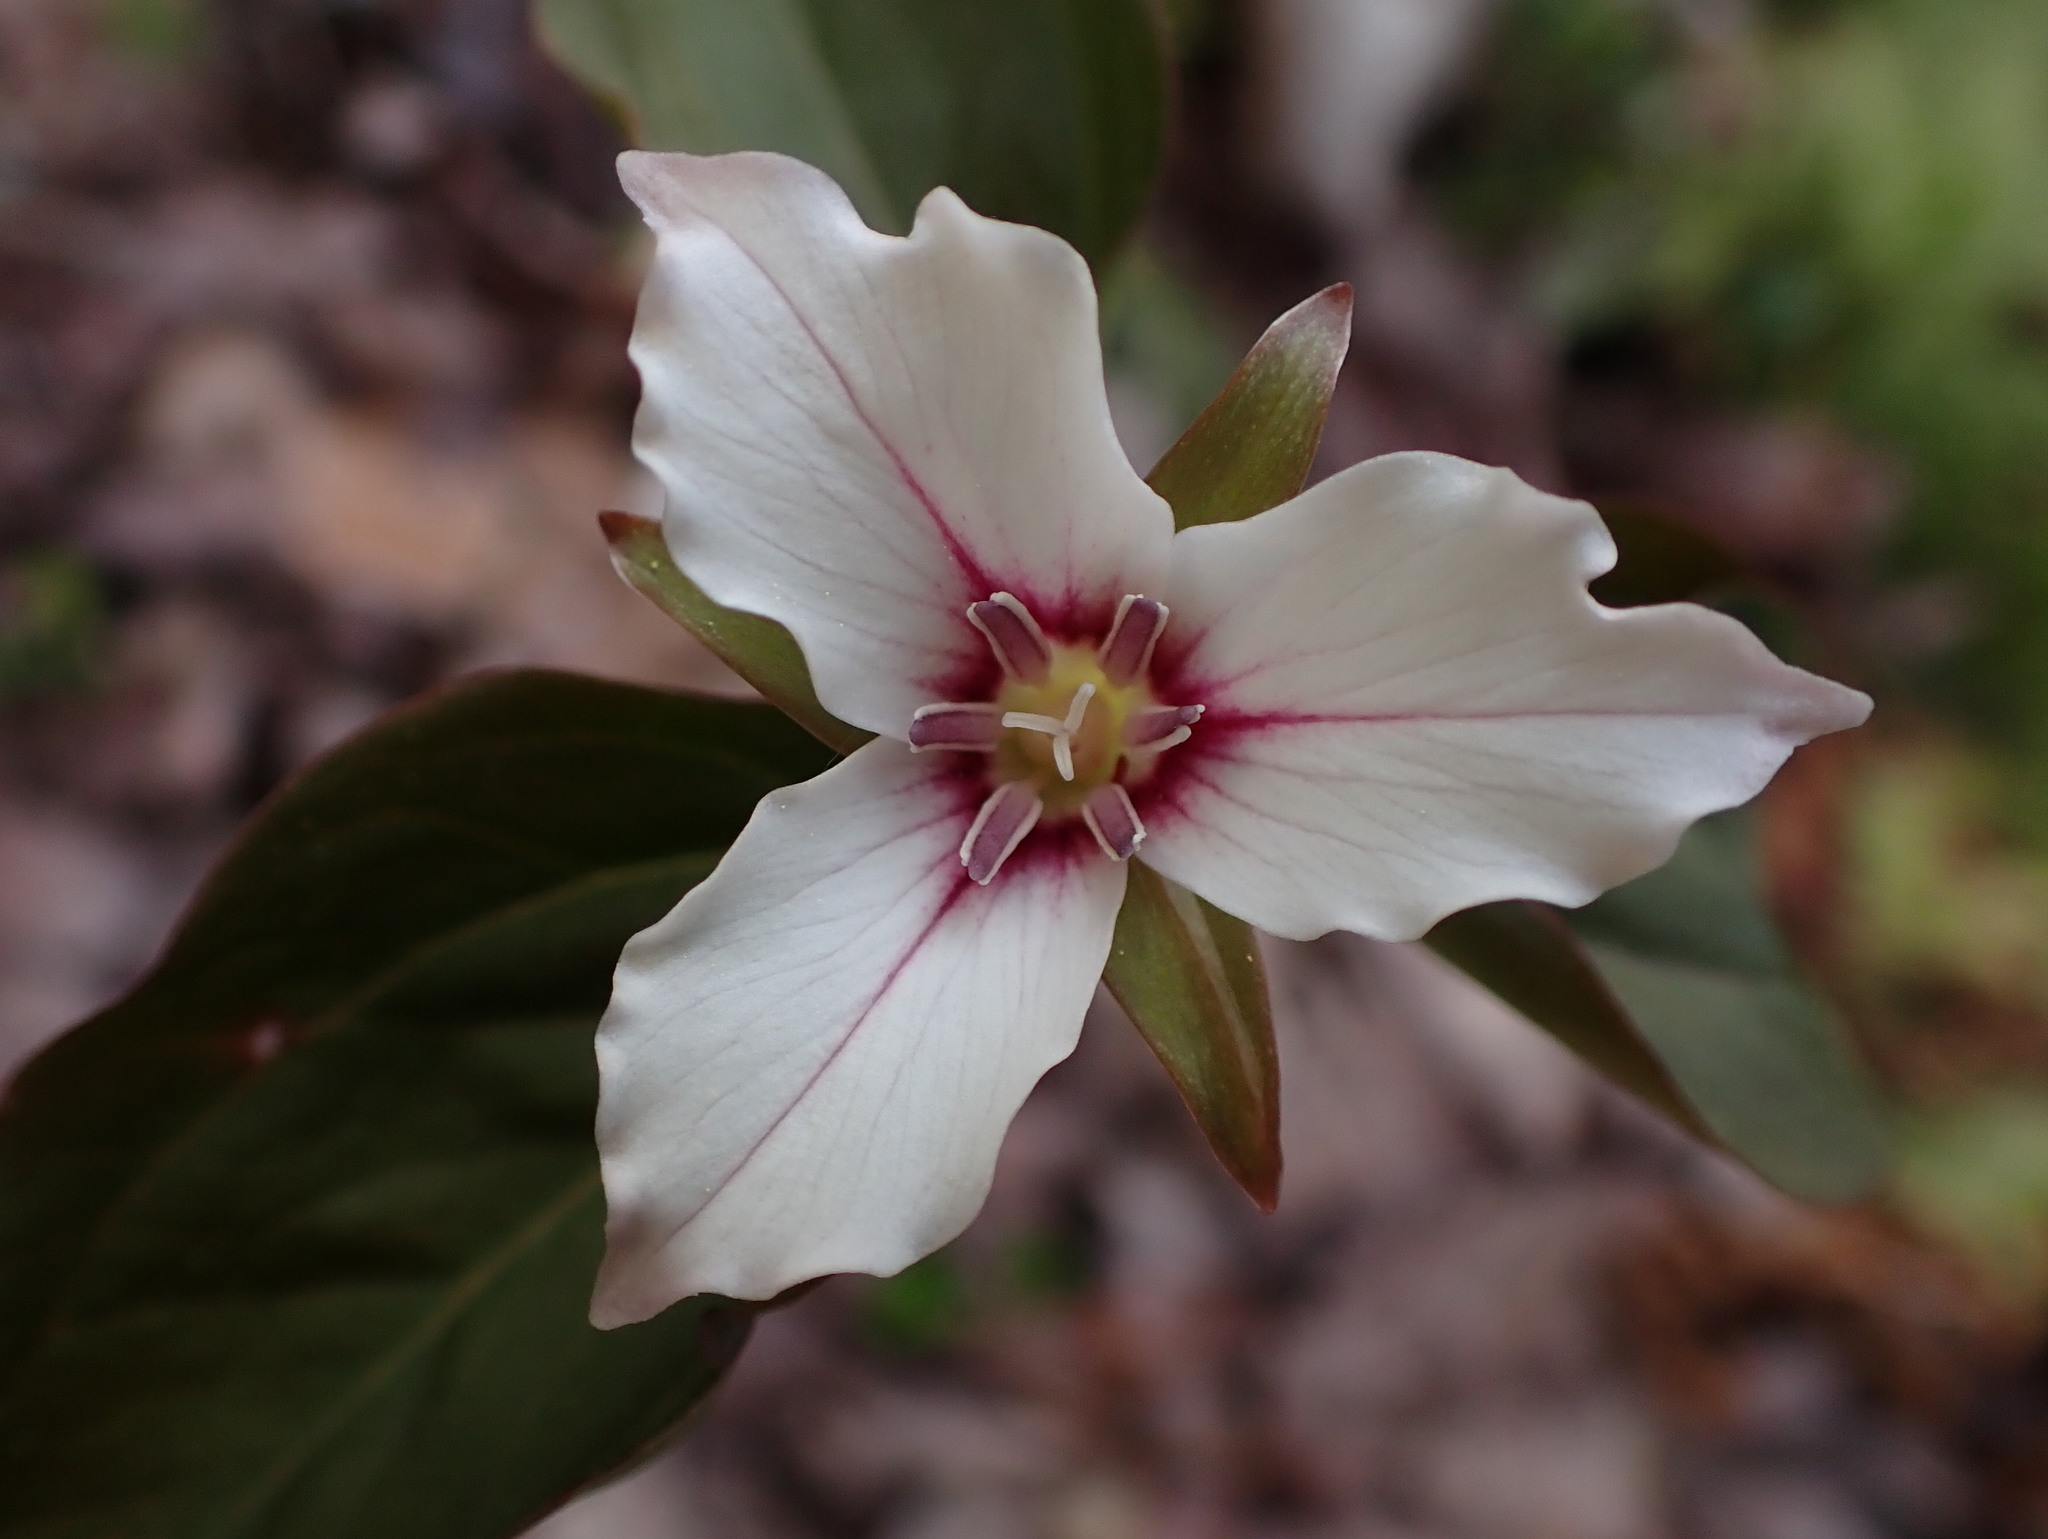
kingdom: Plantae
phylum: Tracheophyta
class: Liliopsida
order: Liliales
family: Melanthiaceae
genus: Trillium
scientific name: Trillium undulatum
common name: Paint trillium
